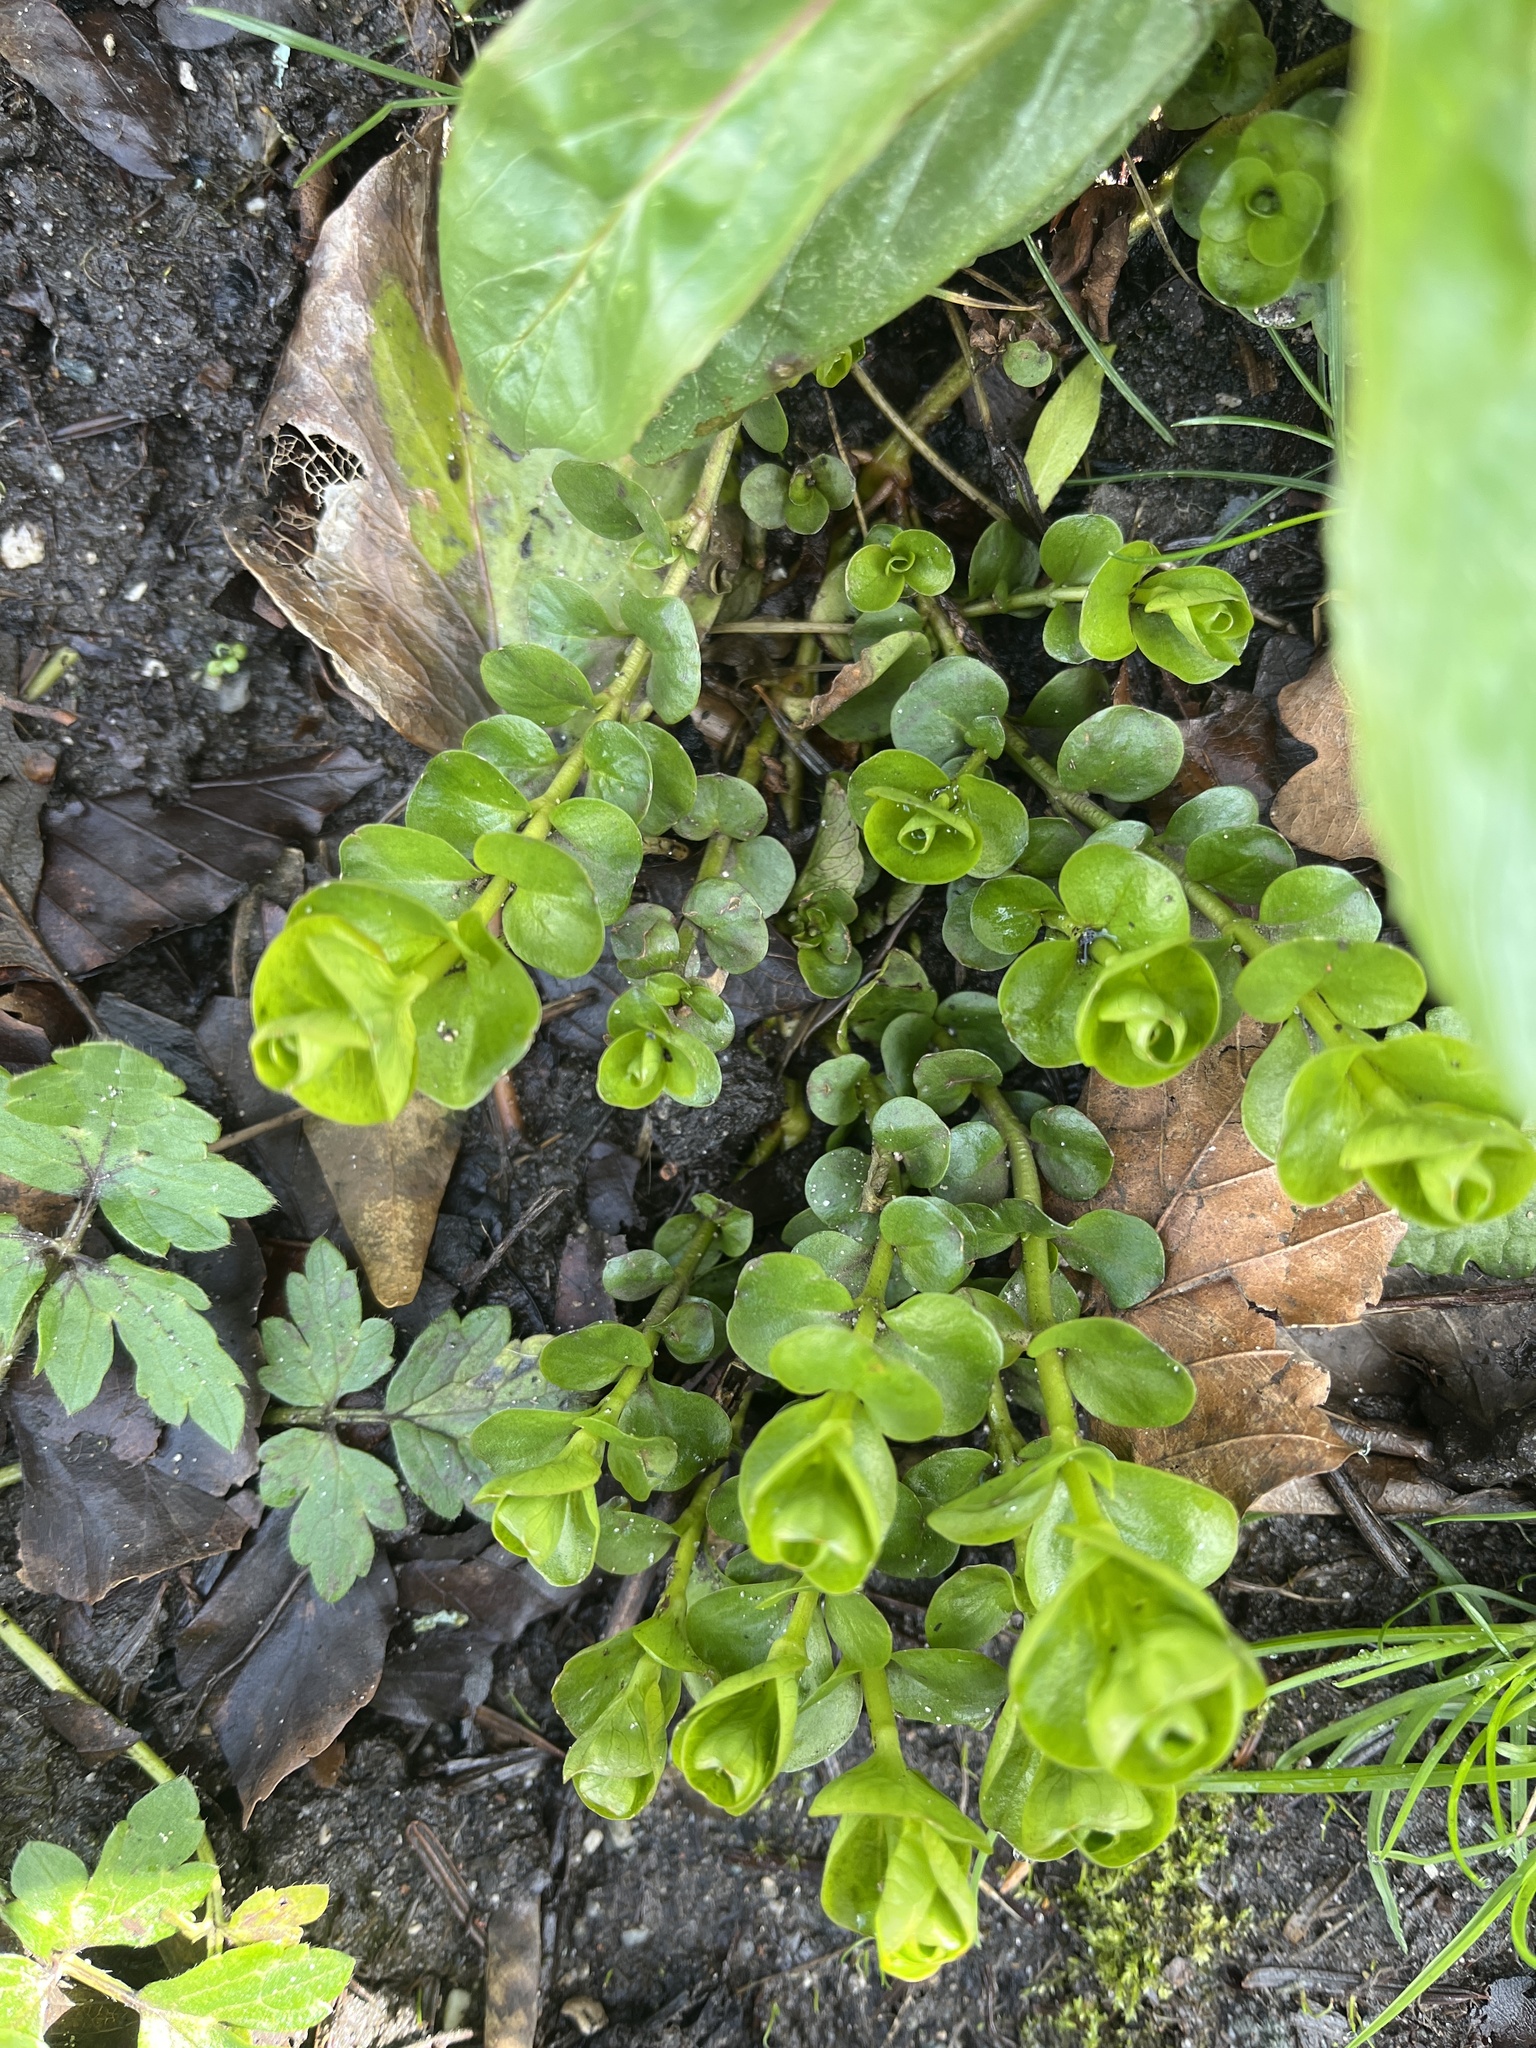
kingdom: Plantae
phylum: Tracheophyta
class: Magnoliopsida
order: Ericales
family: Primulaceae
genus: Lysimachia
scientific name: Lysimachia nummularia
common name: Moneywort
